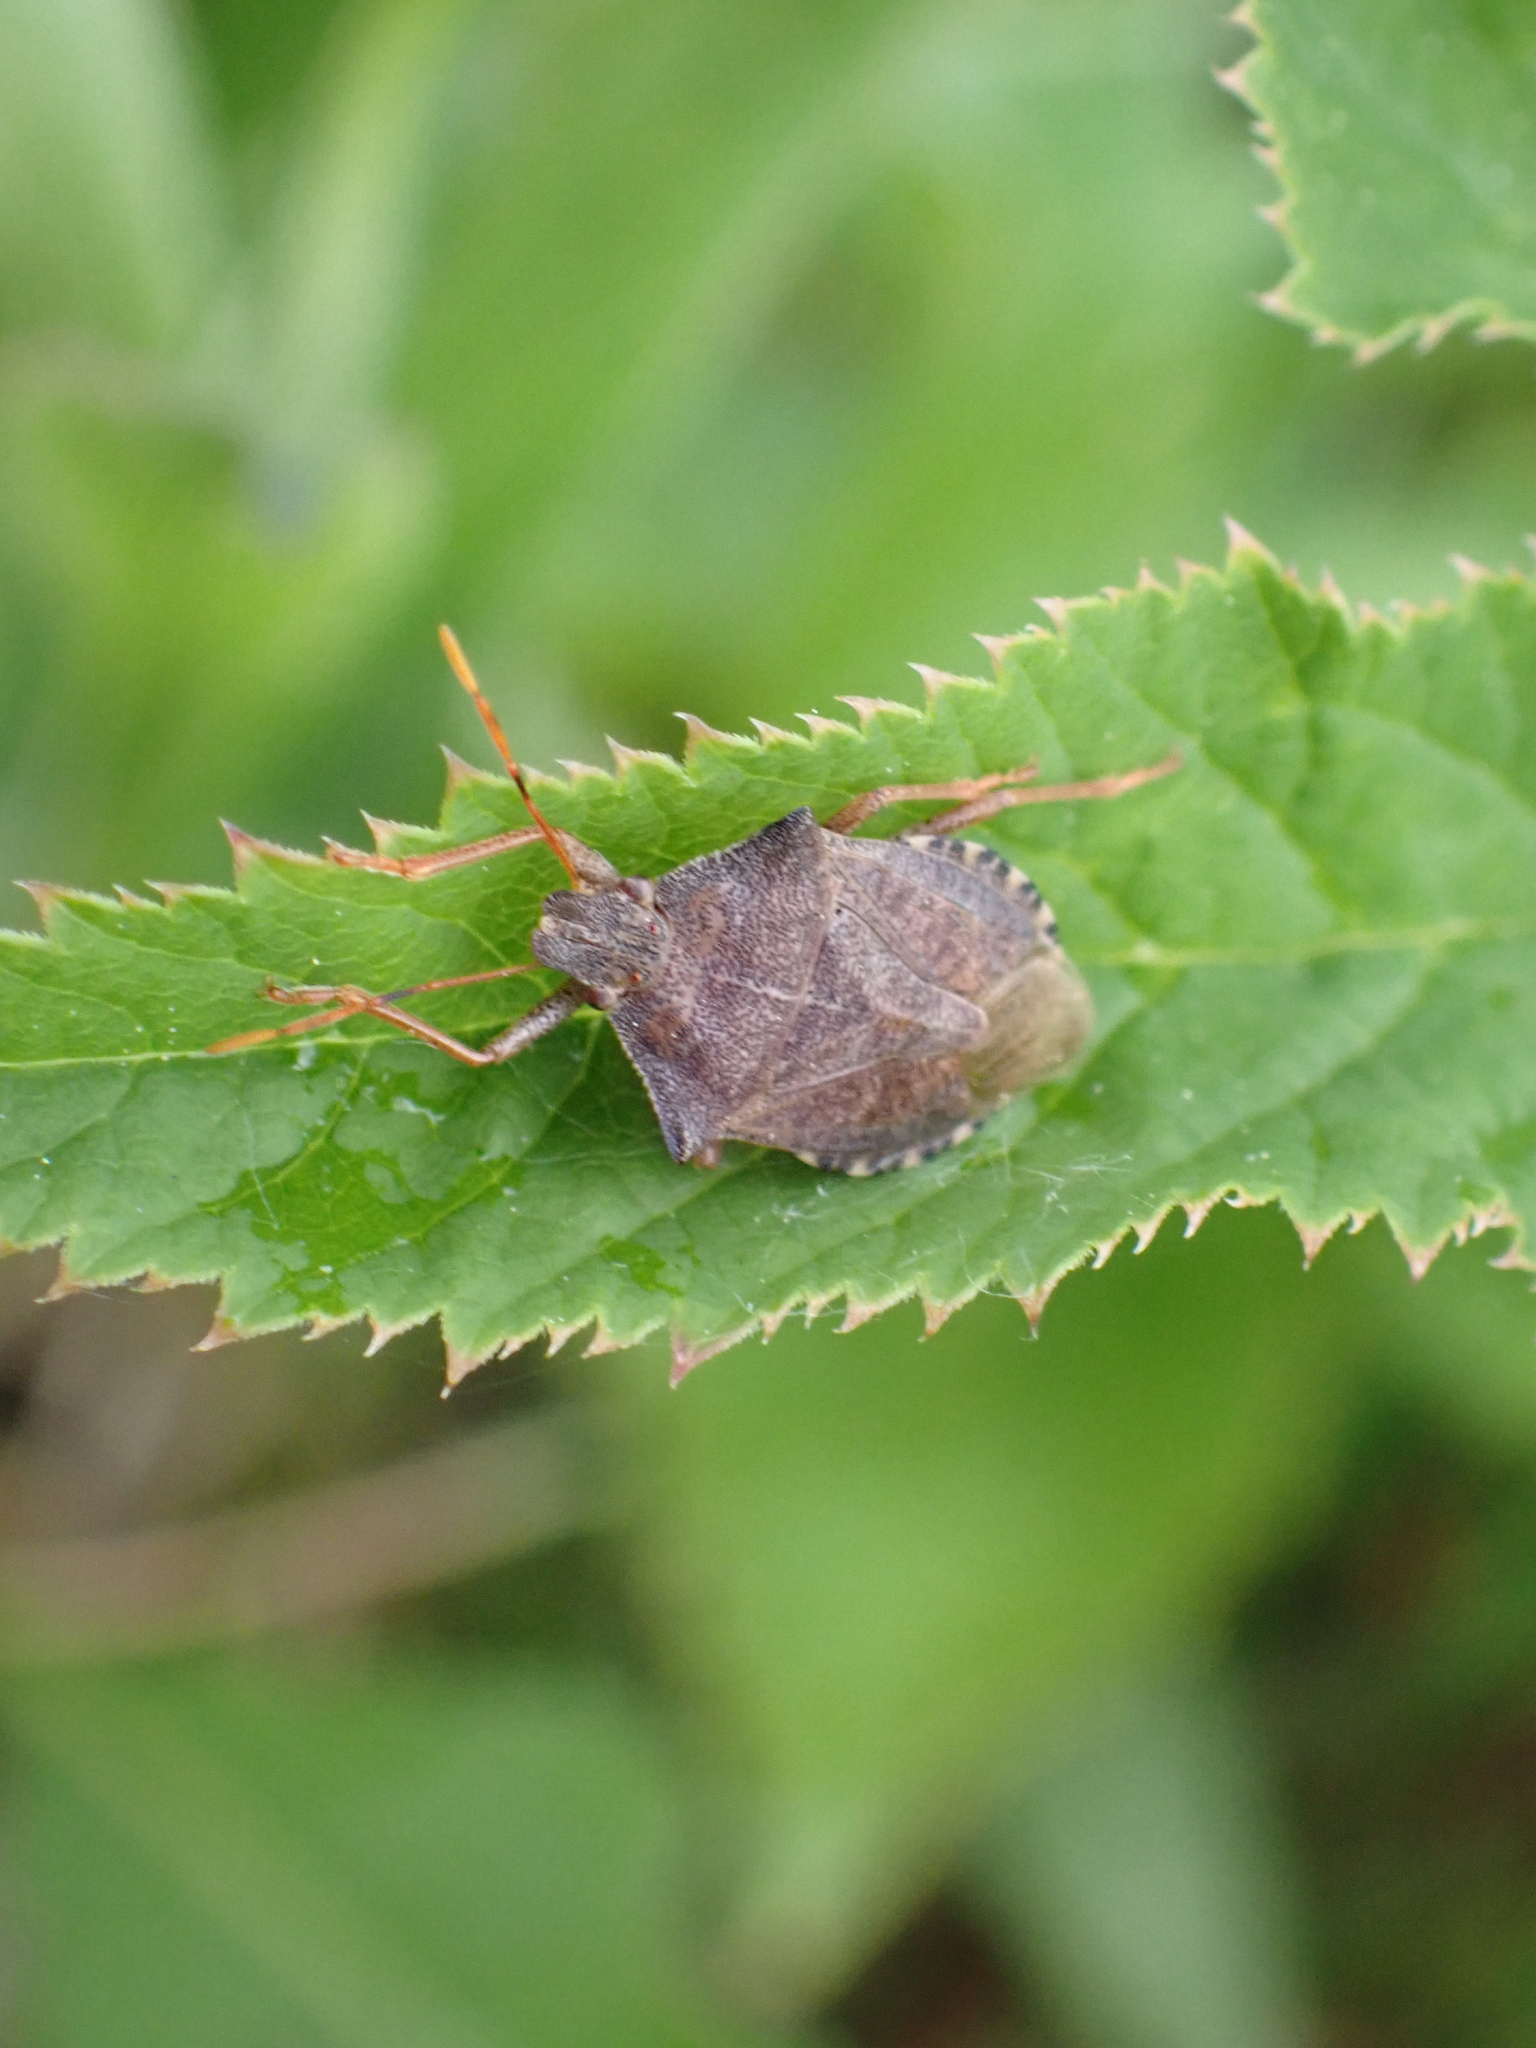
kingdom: Animalia
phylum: Arthropoda
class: Insecta
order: Hemiptera
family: Pentatomidae
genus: Arma
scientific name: Arma custos
